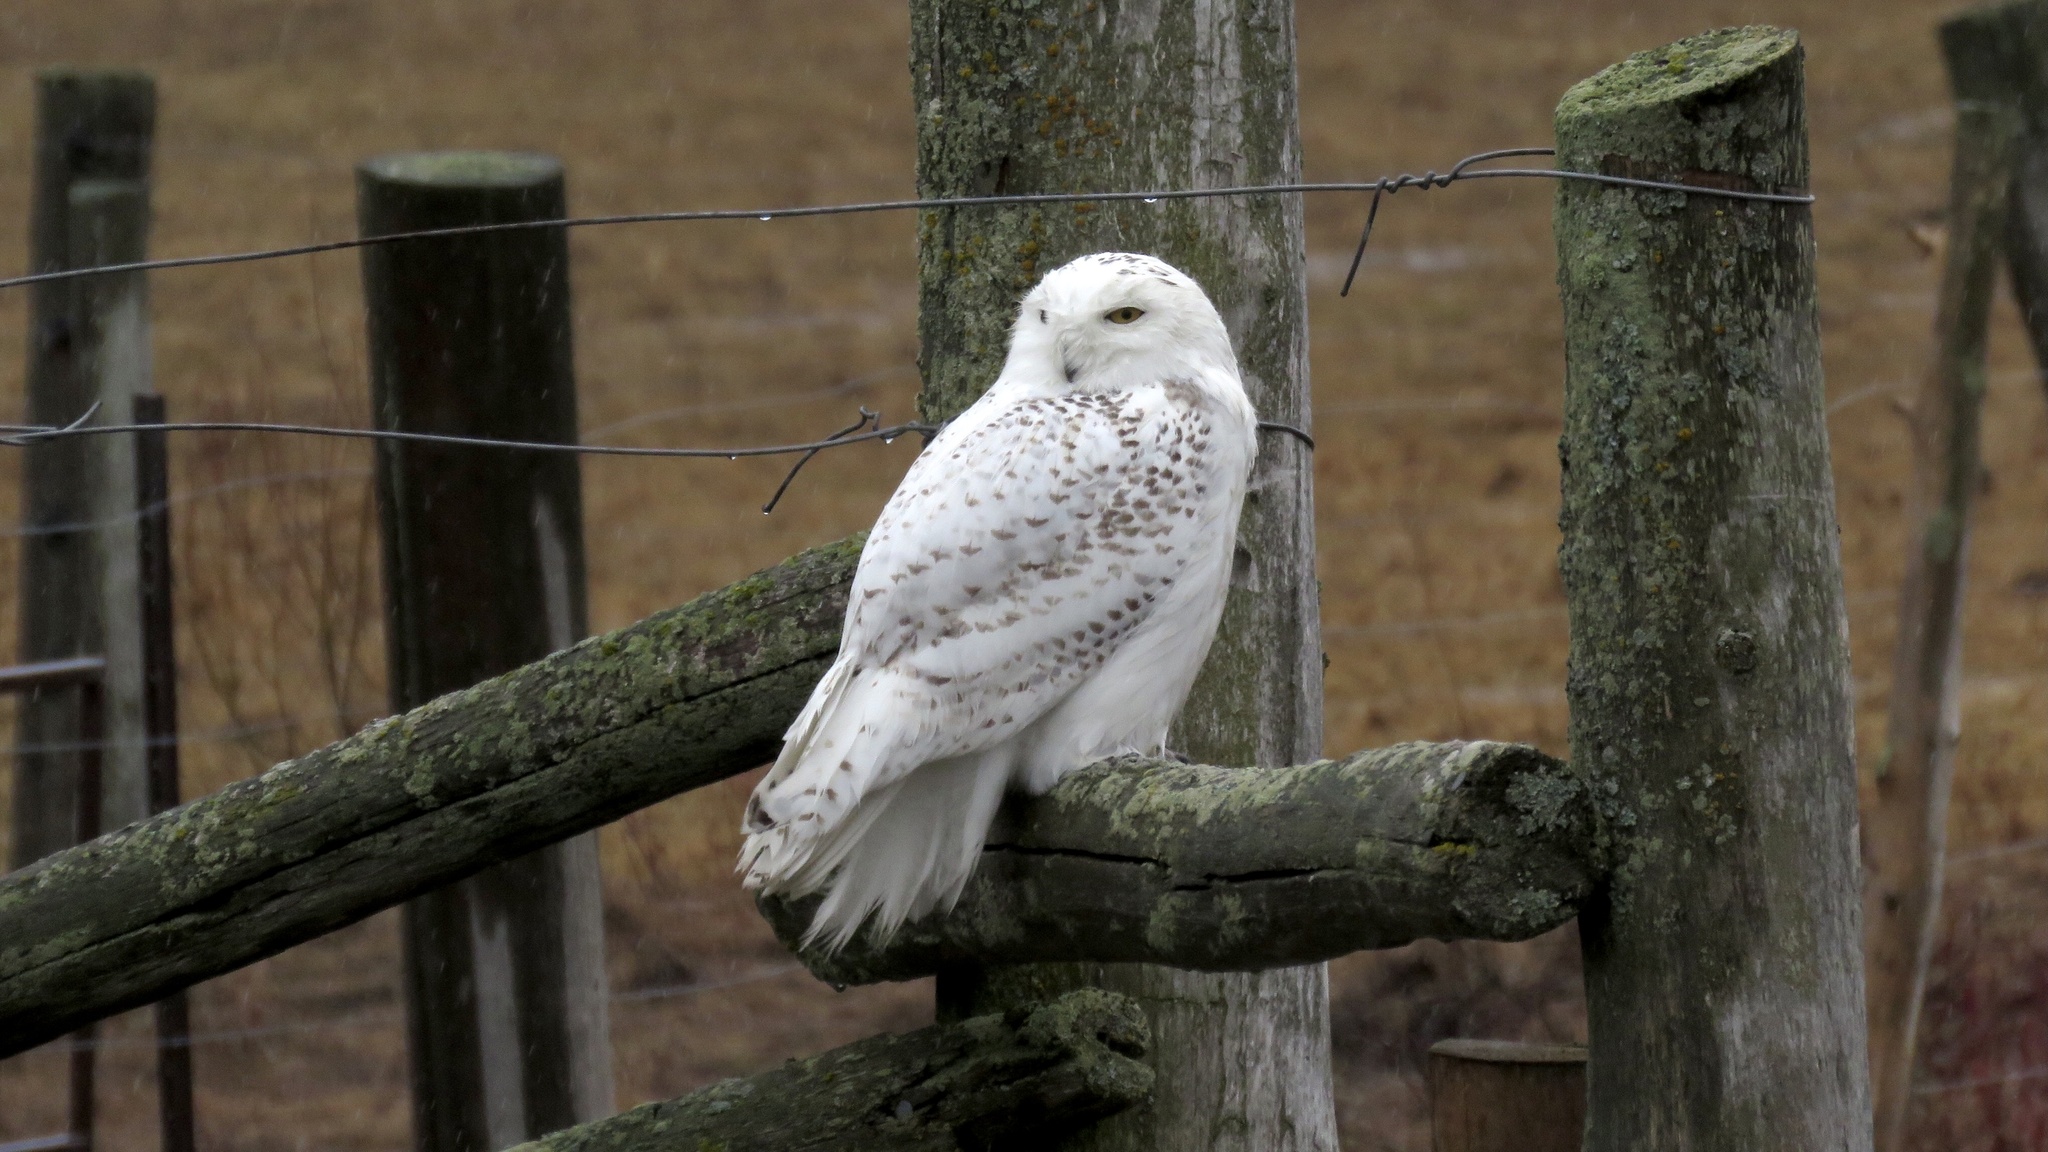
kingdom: Animalia
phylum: Chordata
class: Aves
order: Strigiformes
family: Strigidae
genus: Bubo
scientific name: Bubo scandiacus
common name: Snowy owl
